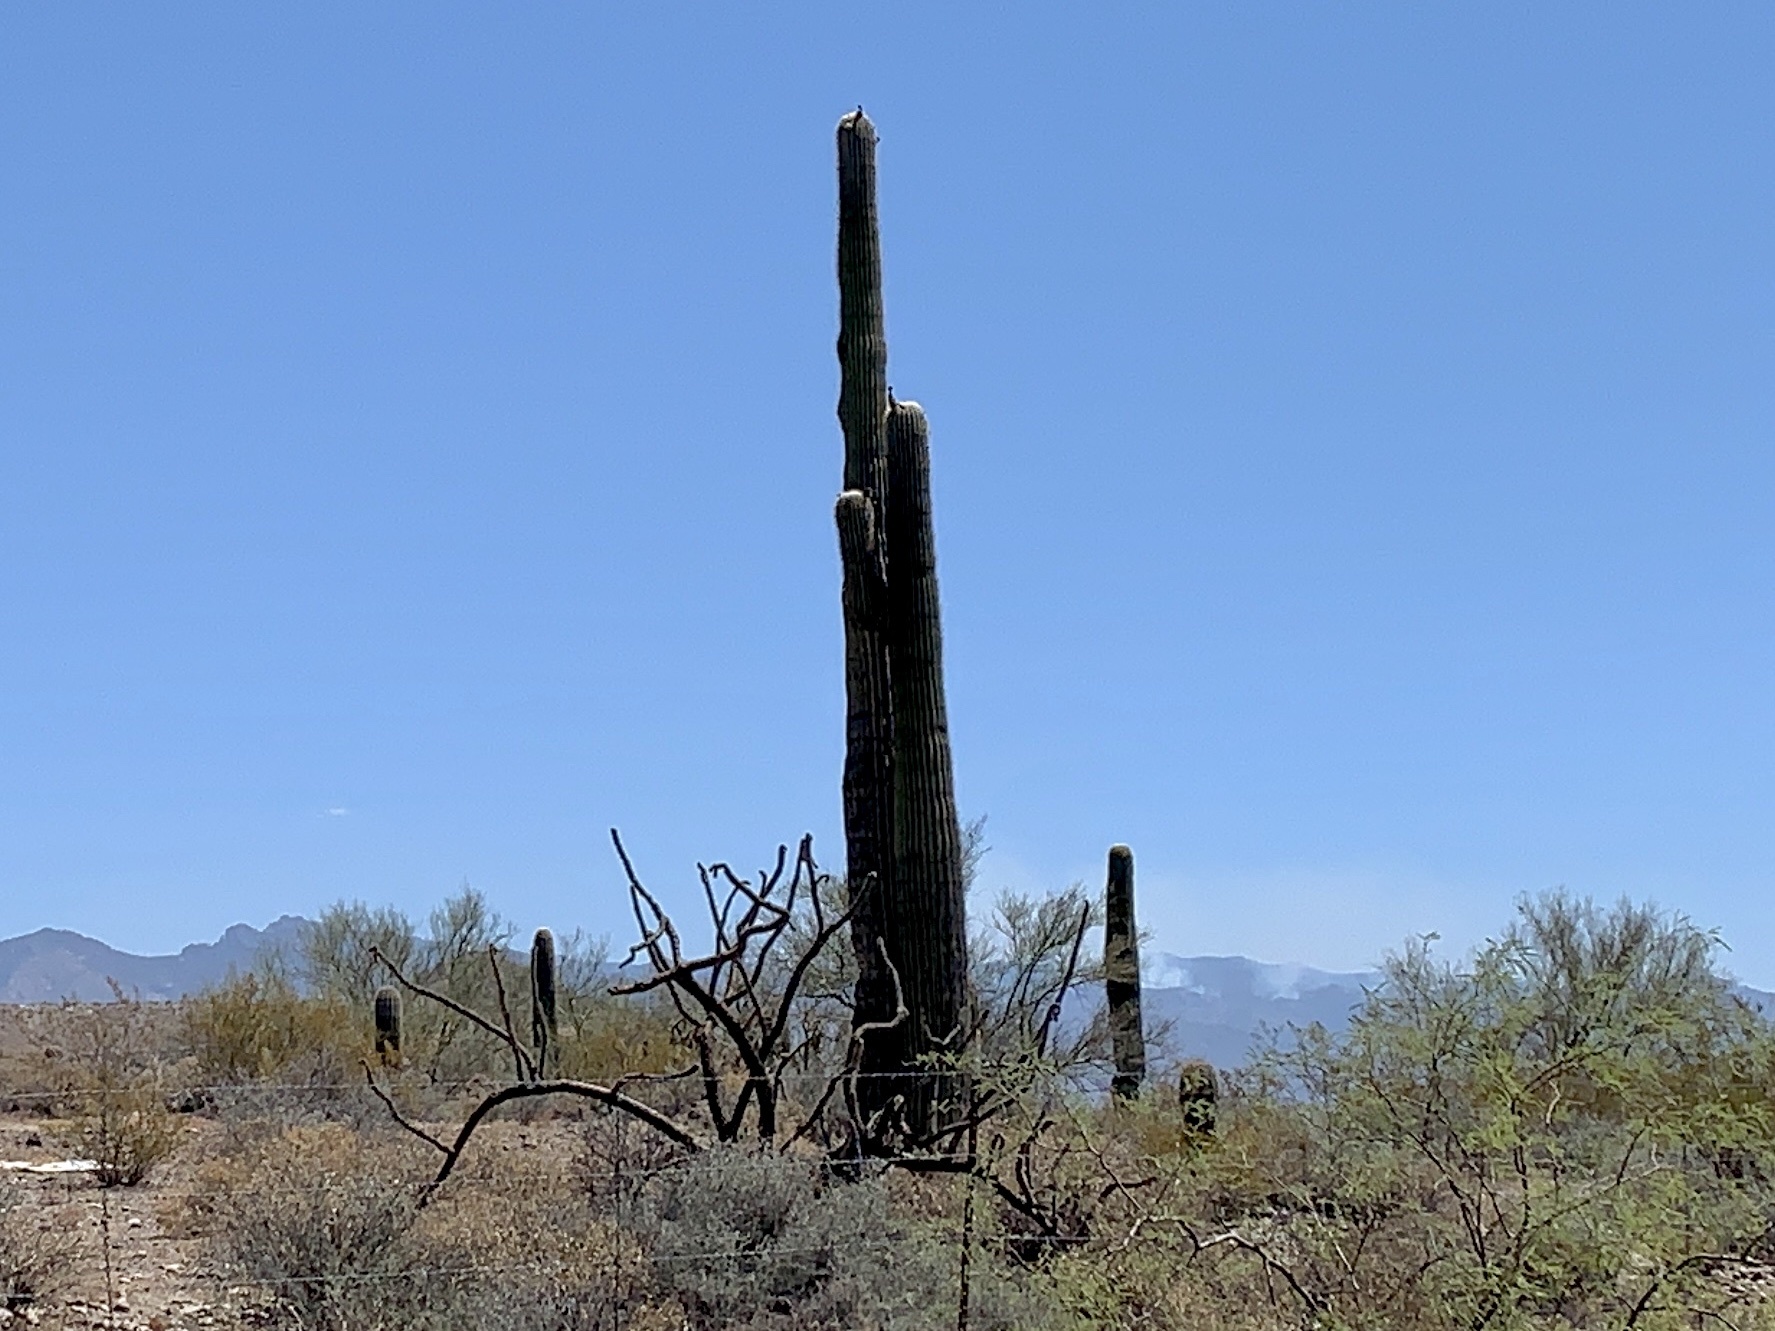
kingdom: Plantae
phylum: Tracheophyta
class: Magnoliopsida
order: Caryophyllales
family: Cactaceae
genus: Carnegiea
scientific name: Carnegiea gigantea
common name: Saguaro
